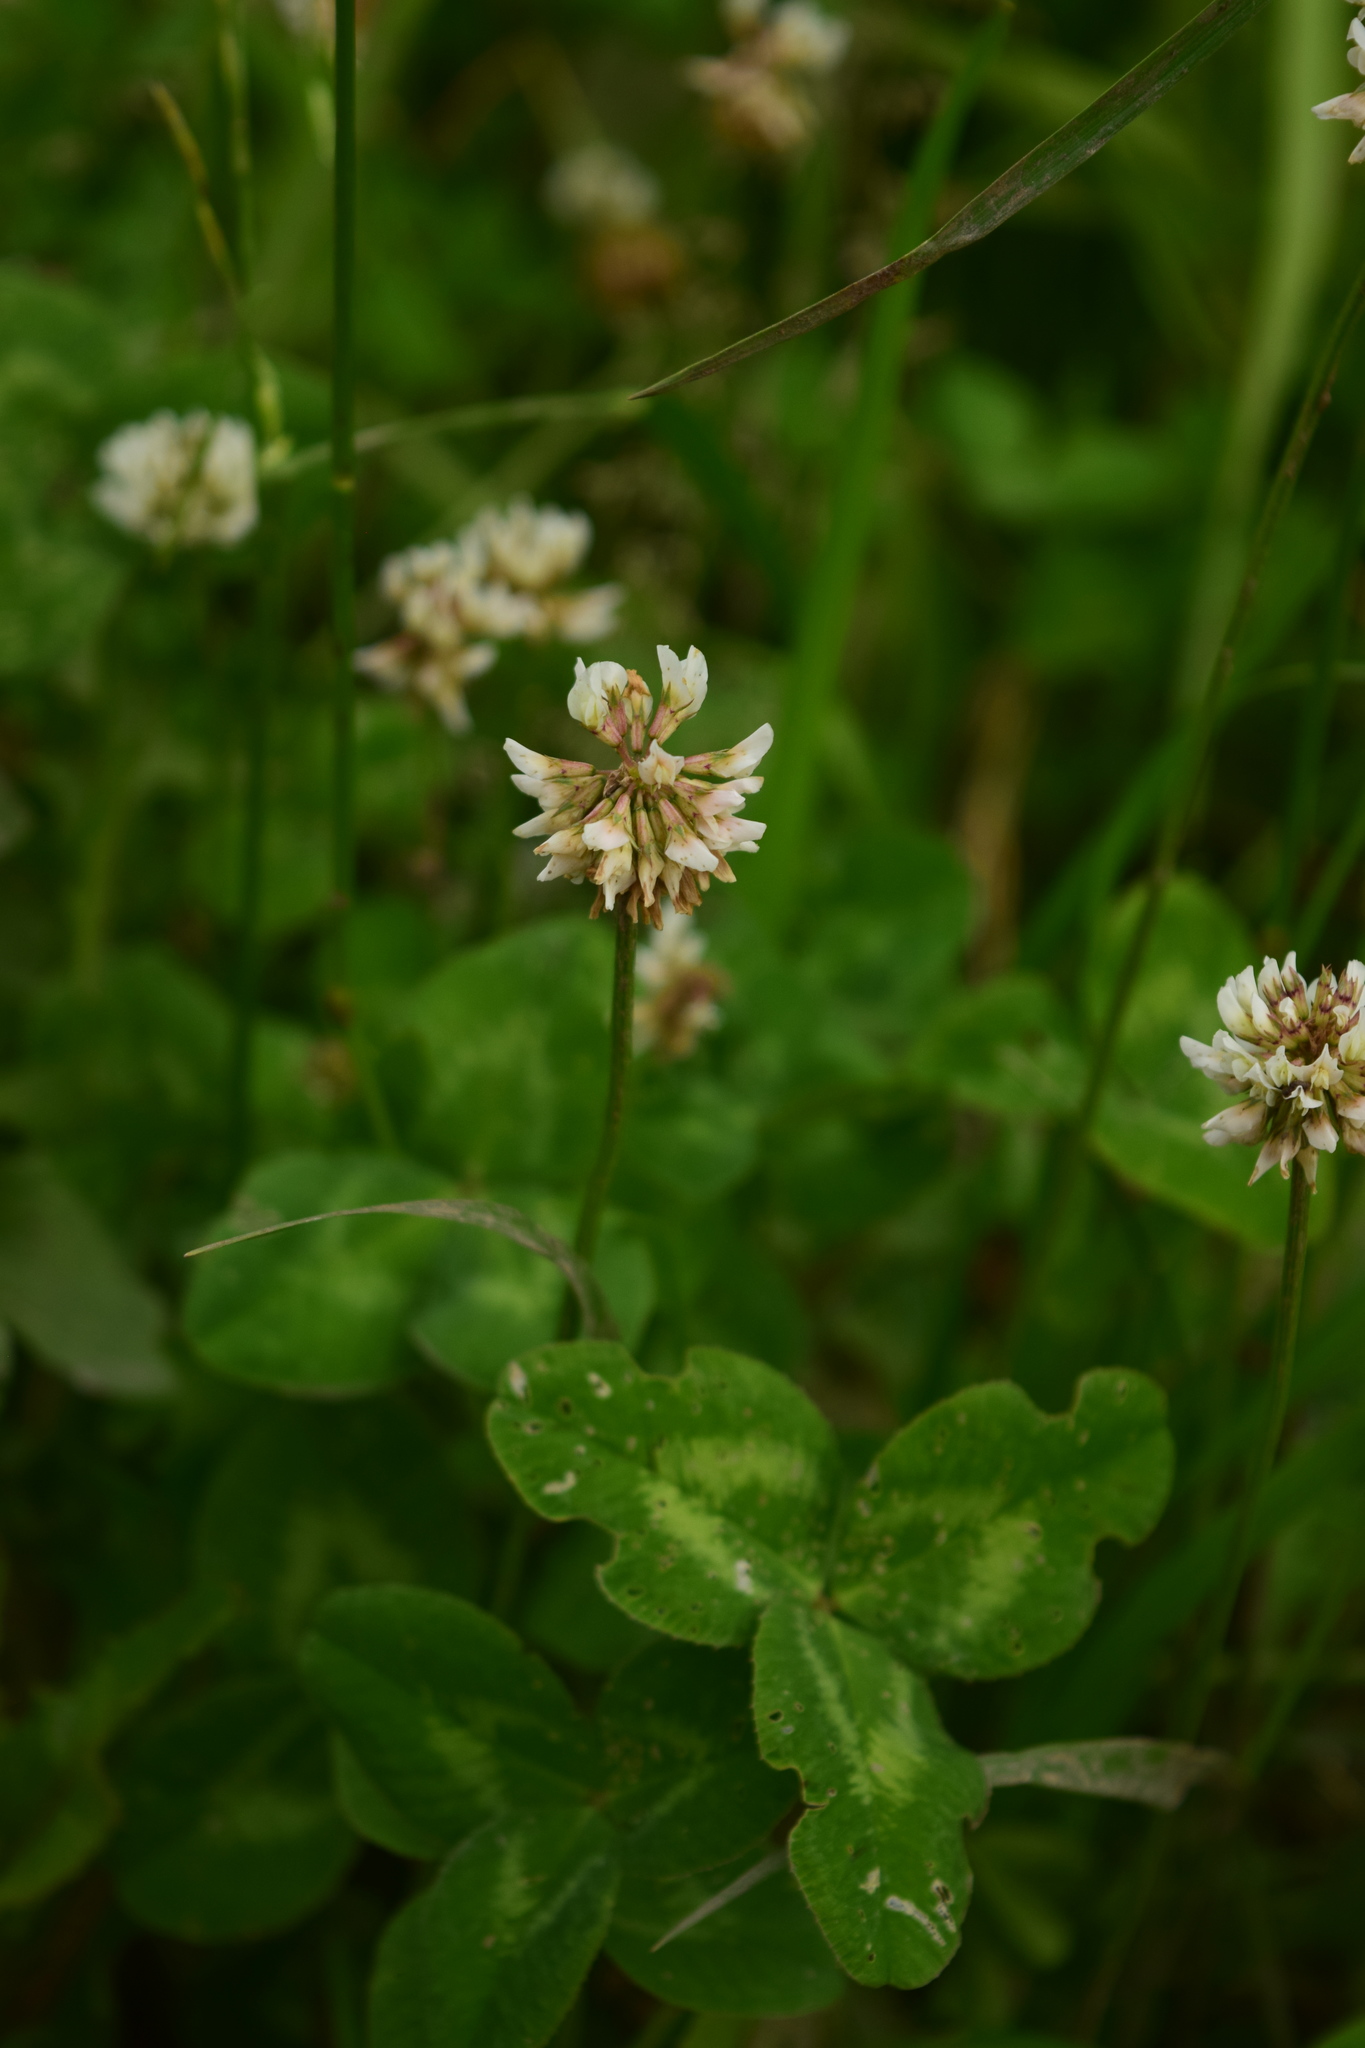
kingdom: Plantae
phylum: Tracheophyta
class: Magnoliopsida
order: Fabales
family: Fabaceae
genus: Trifolium
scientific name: Trifolium repens
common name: White clover
